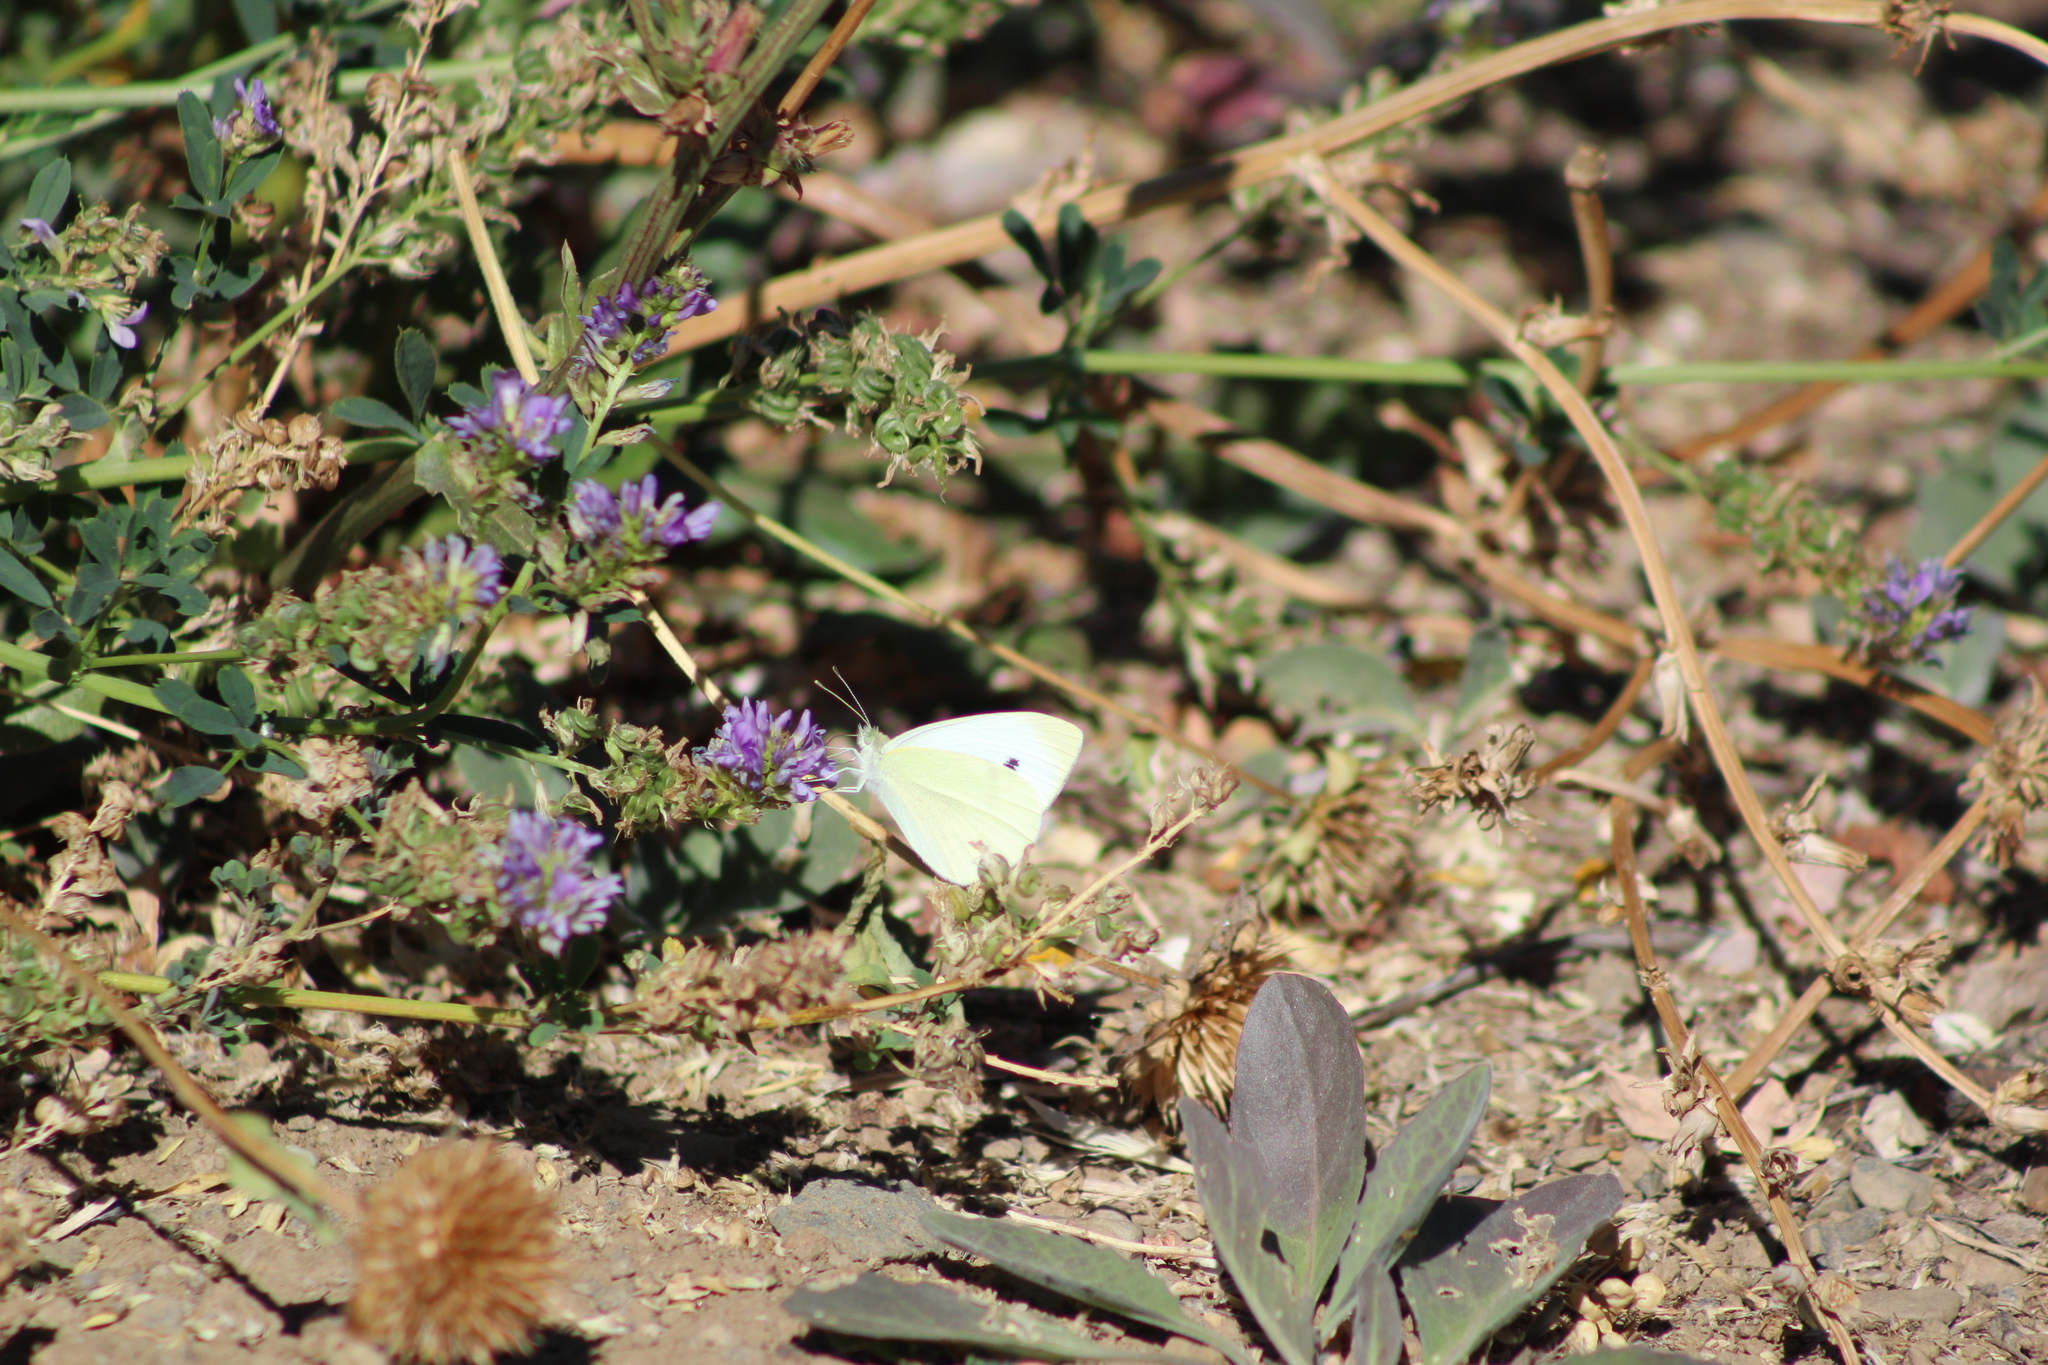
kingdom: Animalia
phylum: Arthropoda
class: Insecta
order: Lepidoptera
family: Pieridae
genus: Pieris
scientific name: Pieris rapae
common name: Small white
